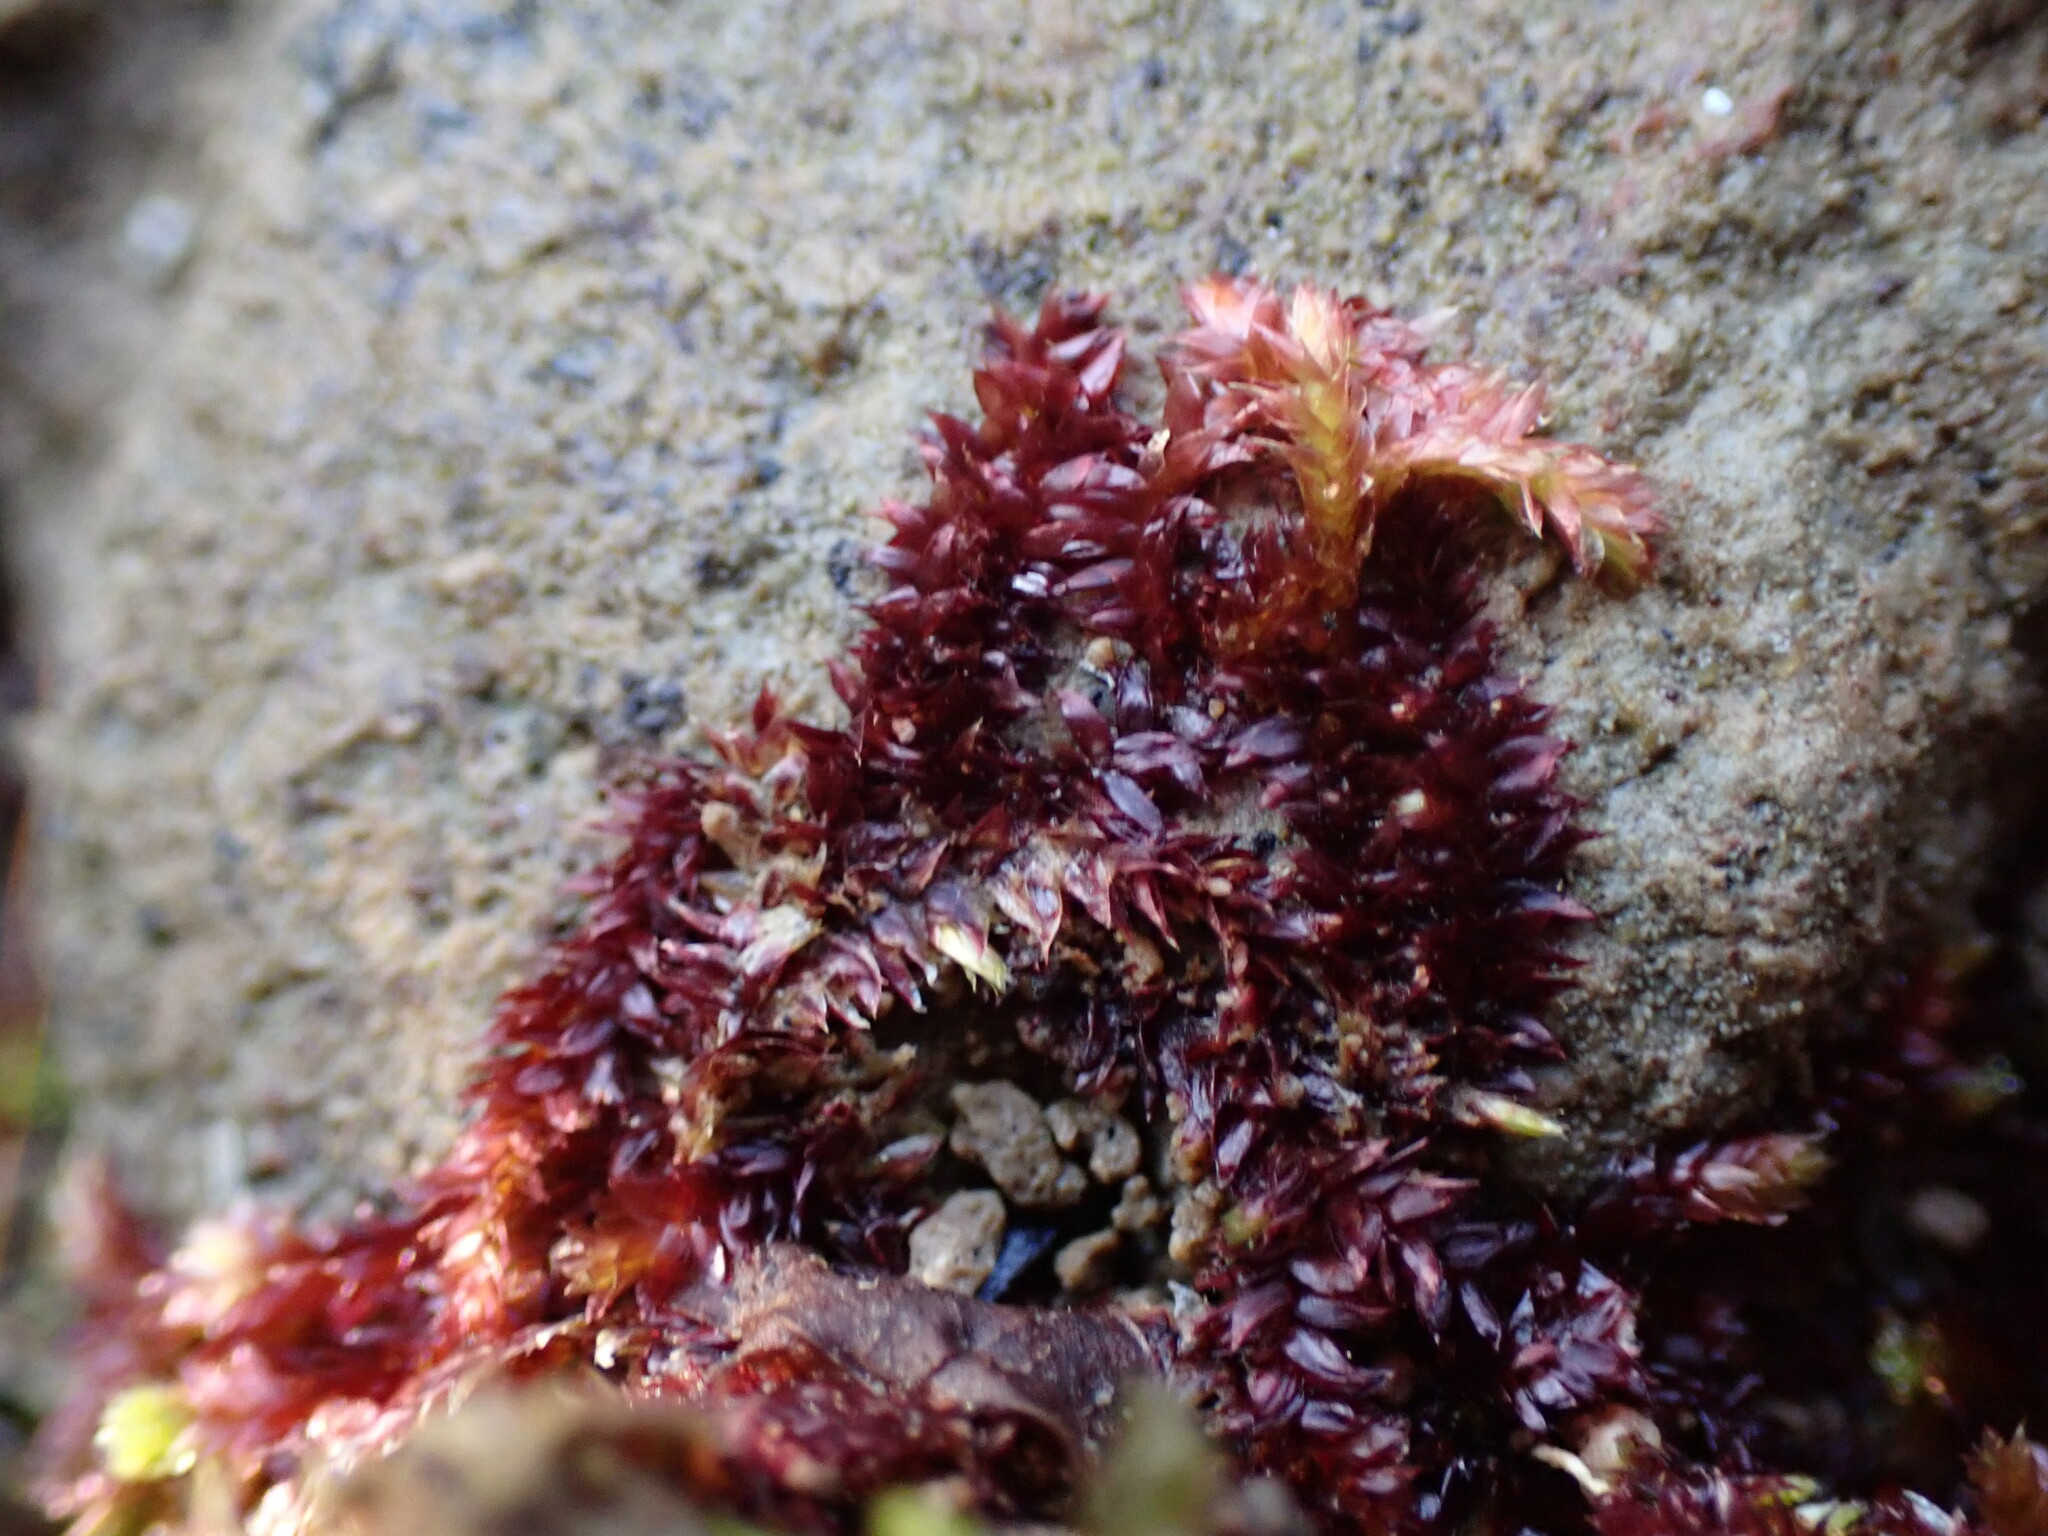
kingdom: Plantae
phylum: Bryophyta
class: Bryopsida
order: Hypnales
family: Plagiotheciaceae
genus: Pseudotaxiphyllum
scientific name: Pseudotaxiphyllum pohliaecarpum
